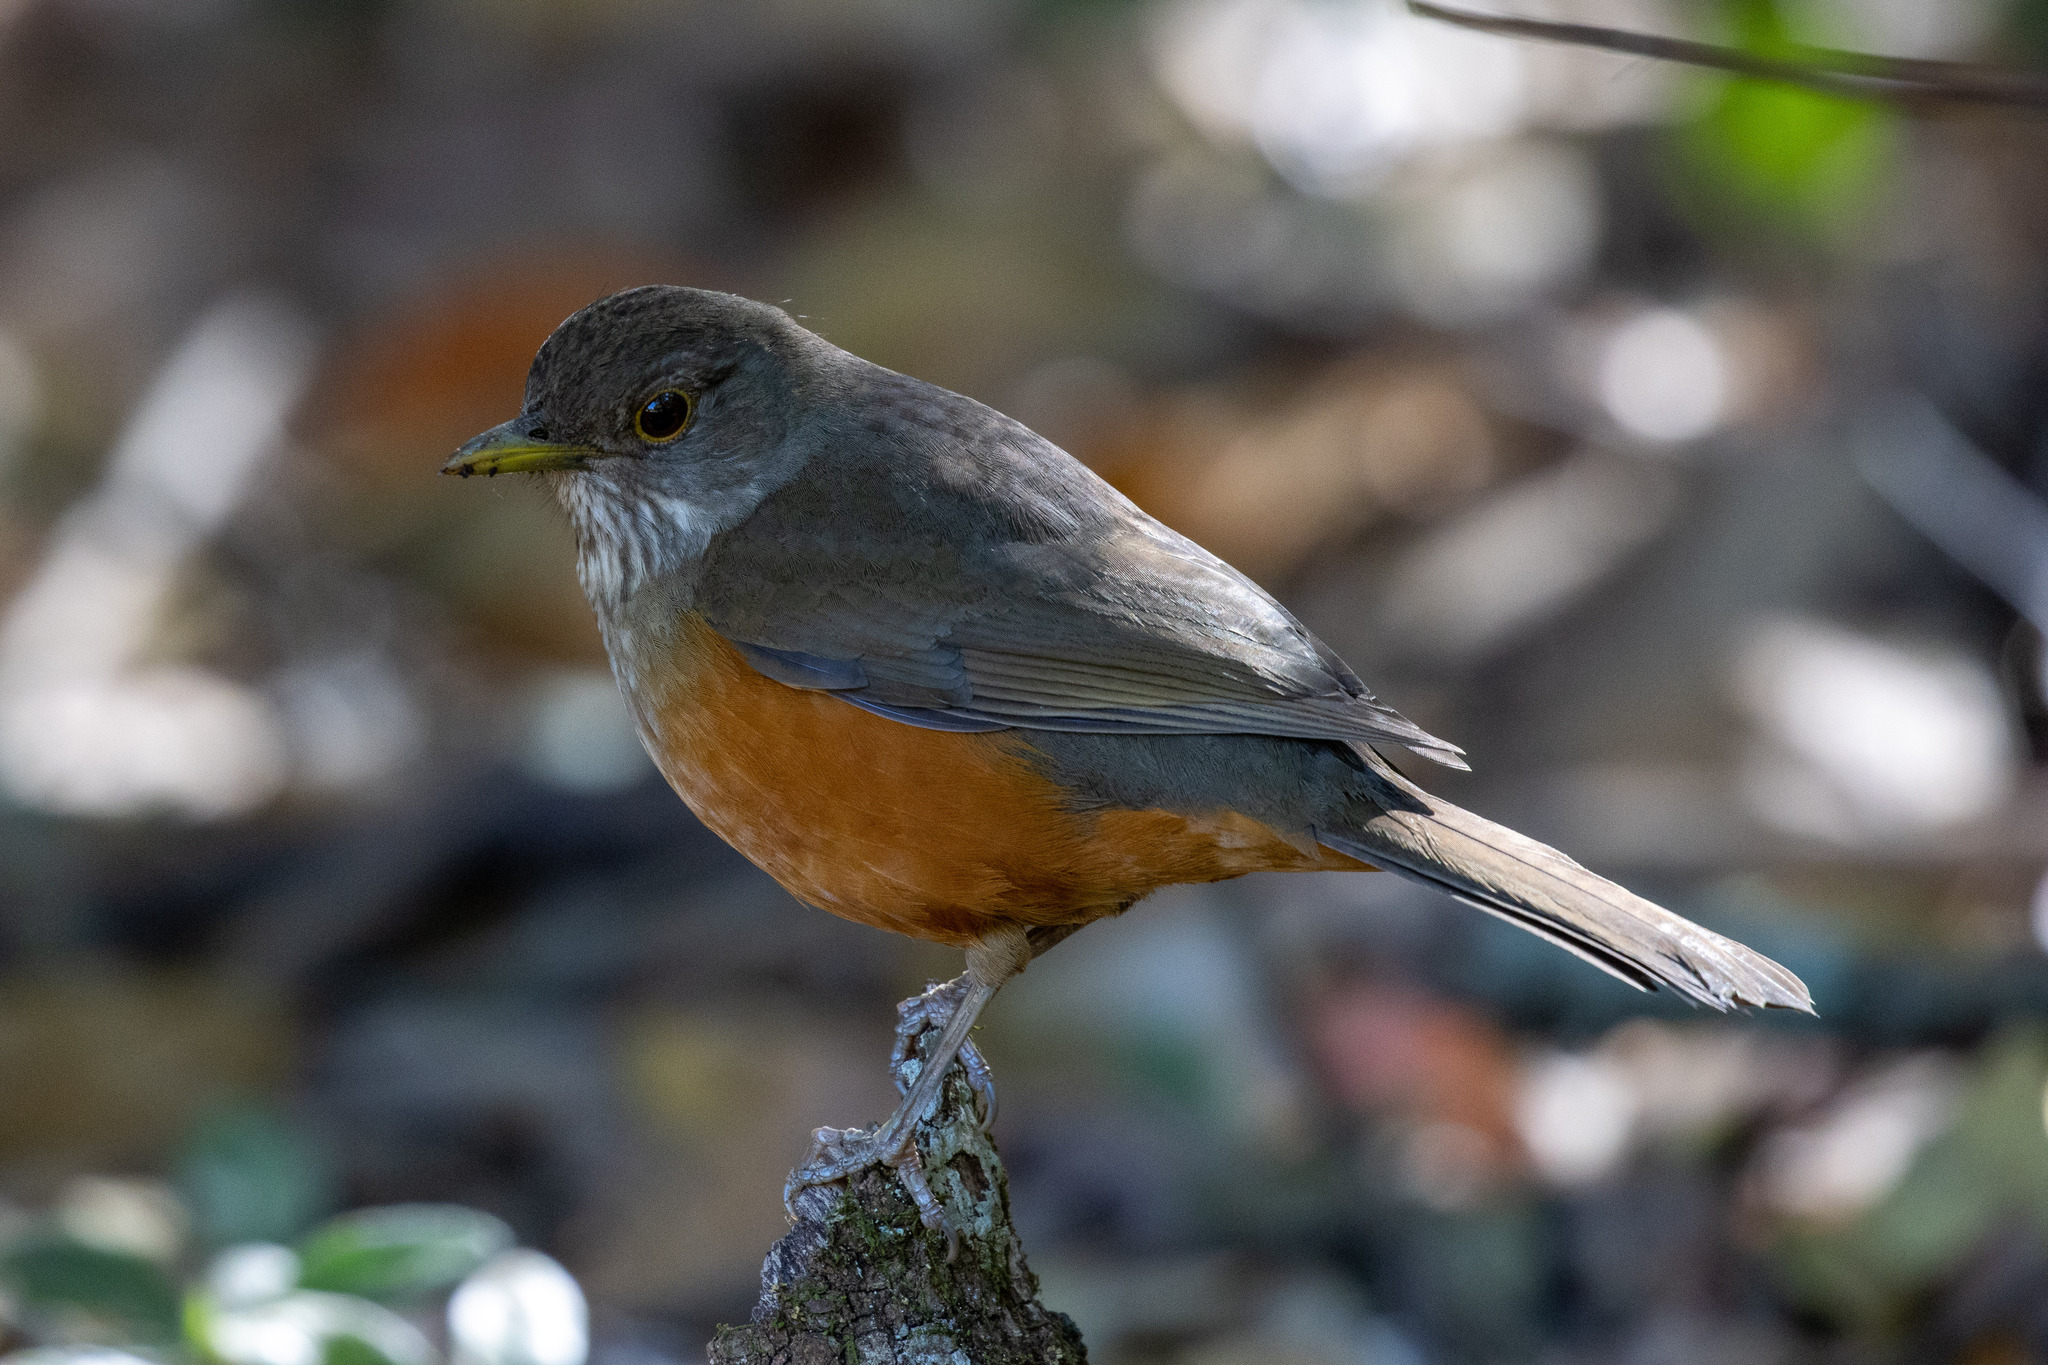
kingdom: Animalia
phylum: Chordata
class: Aves
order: Passeriformes
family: Turdidae
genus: Turdus
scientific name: Turdus rufiventris
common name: Rufous-bellied thrush
